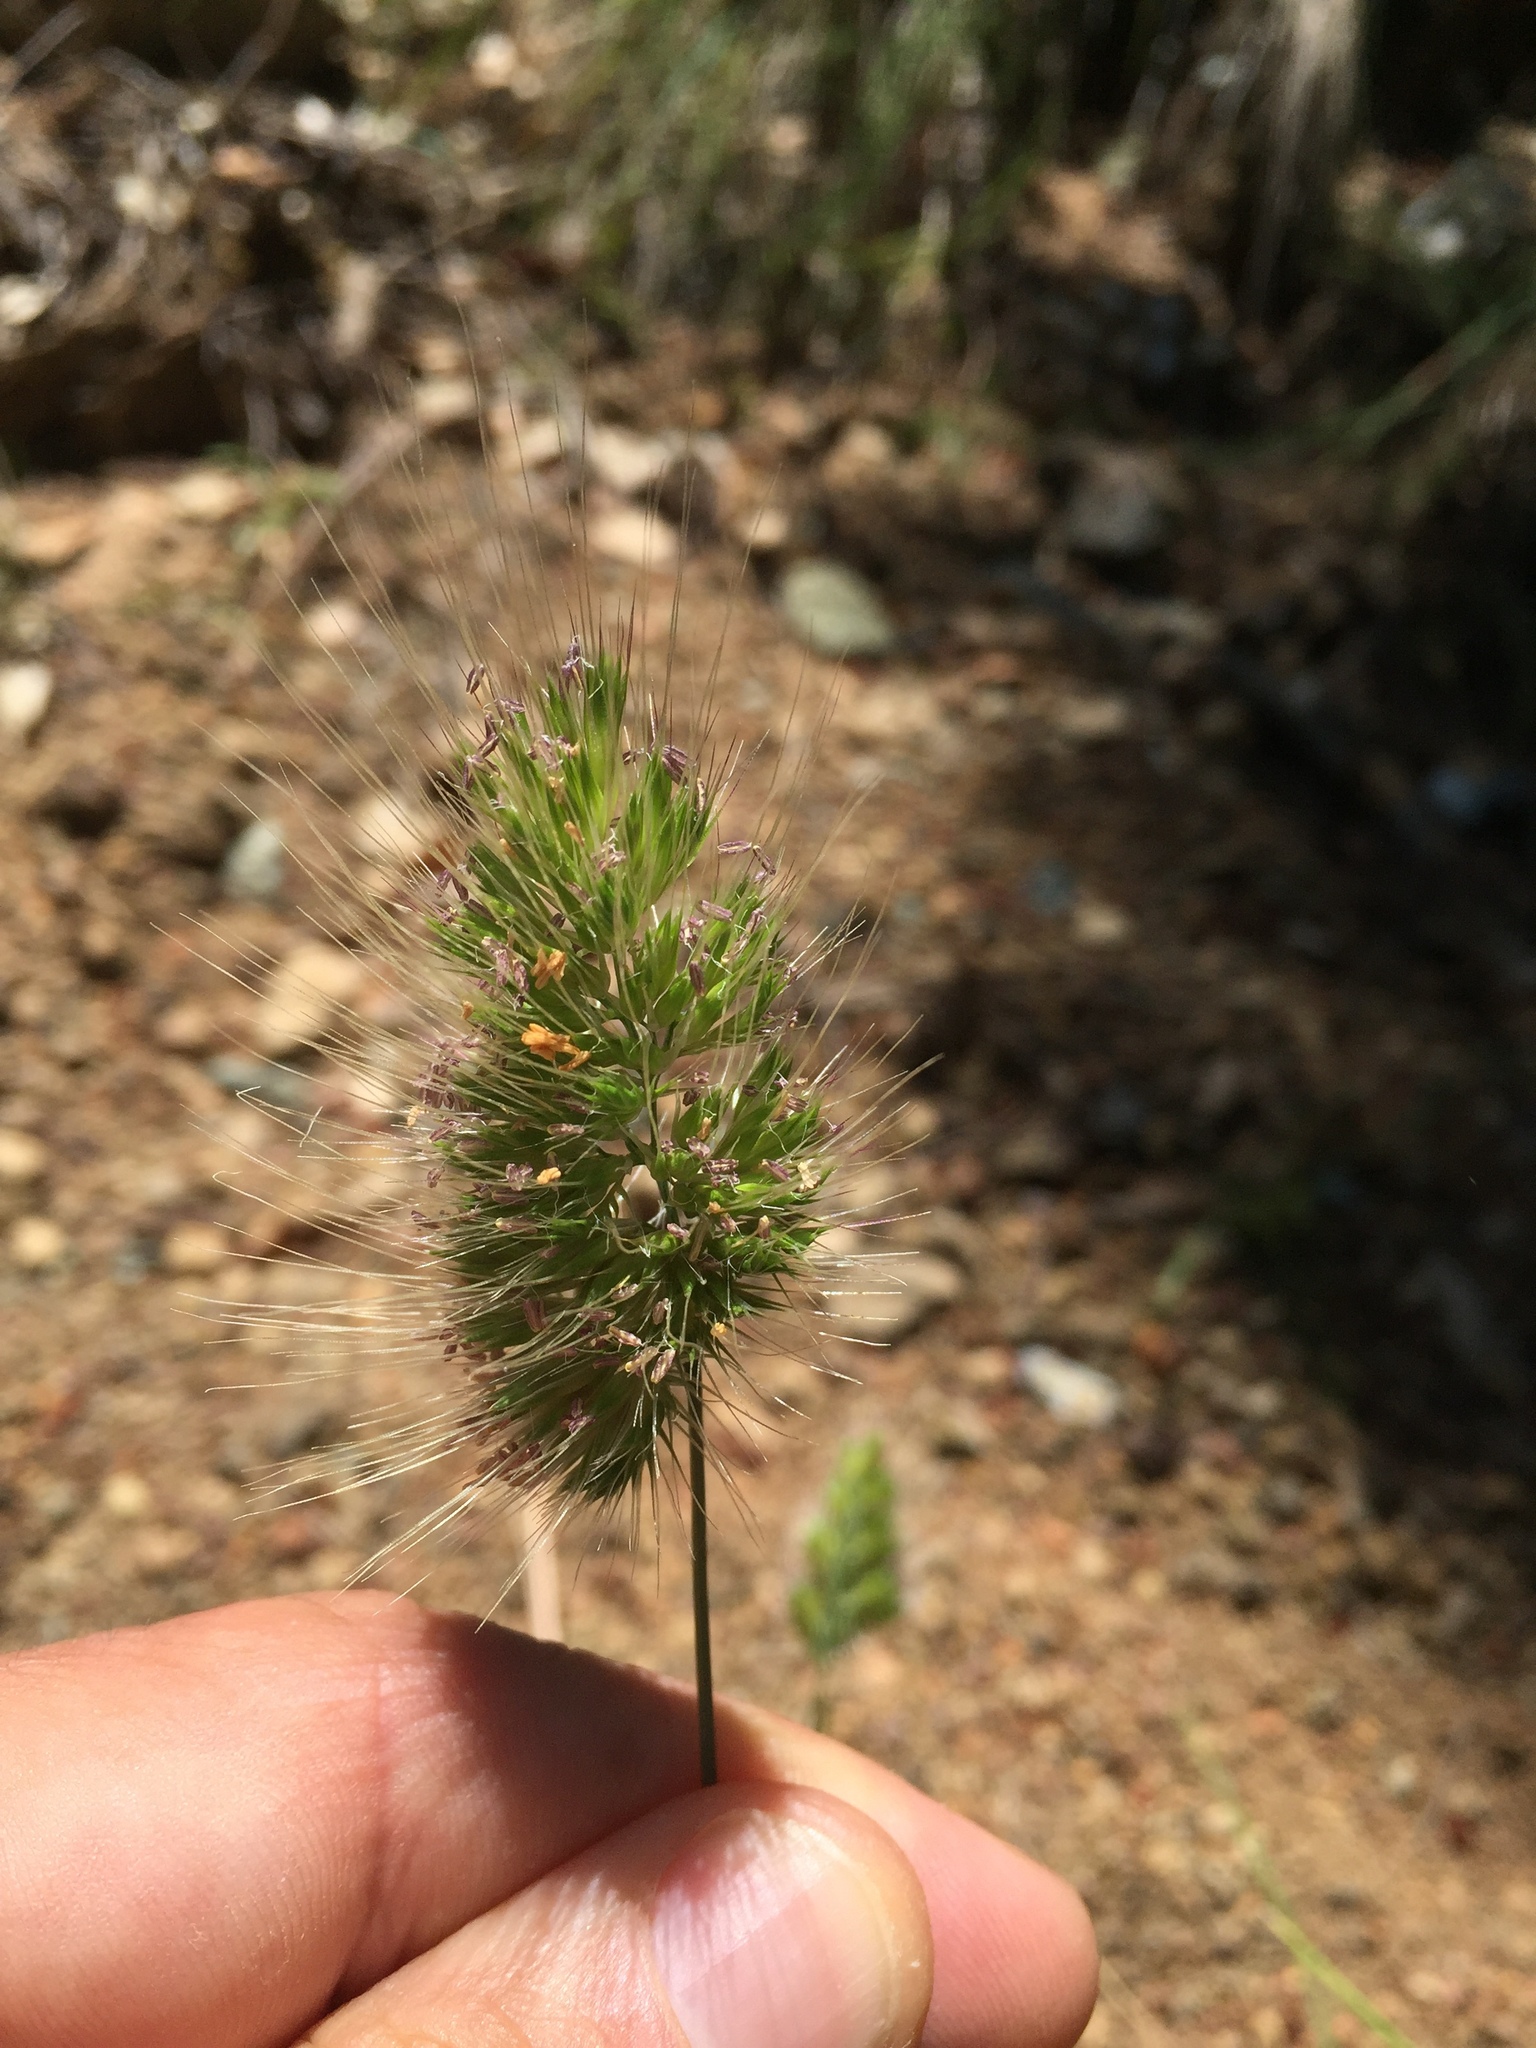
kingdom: Plantae
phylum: Tracheophyta
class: Liliopsida
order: Poales
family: Poaceae
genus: Cynosurus
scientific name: Cynosurus echinatus
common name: Rough dog's-tail
